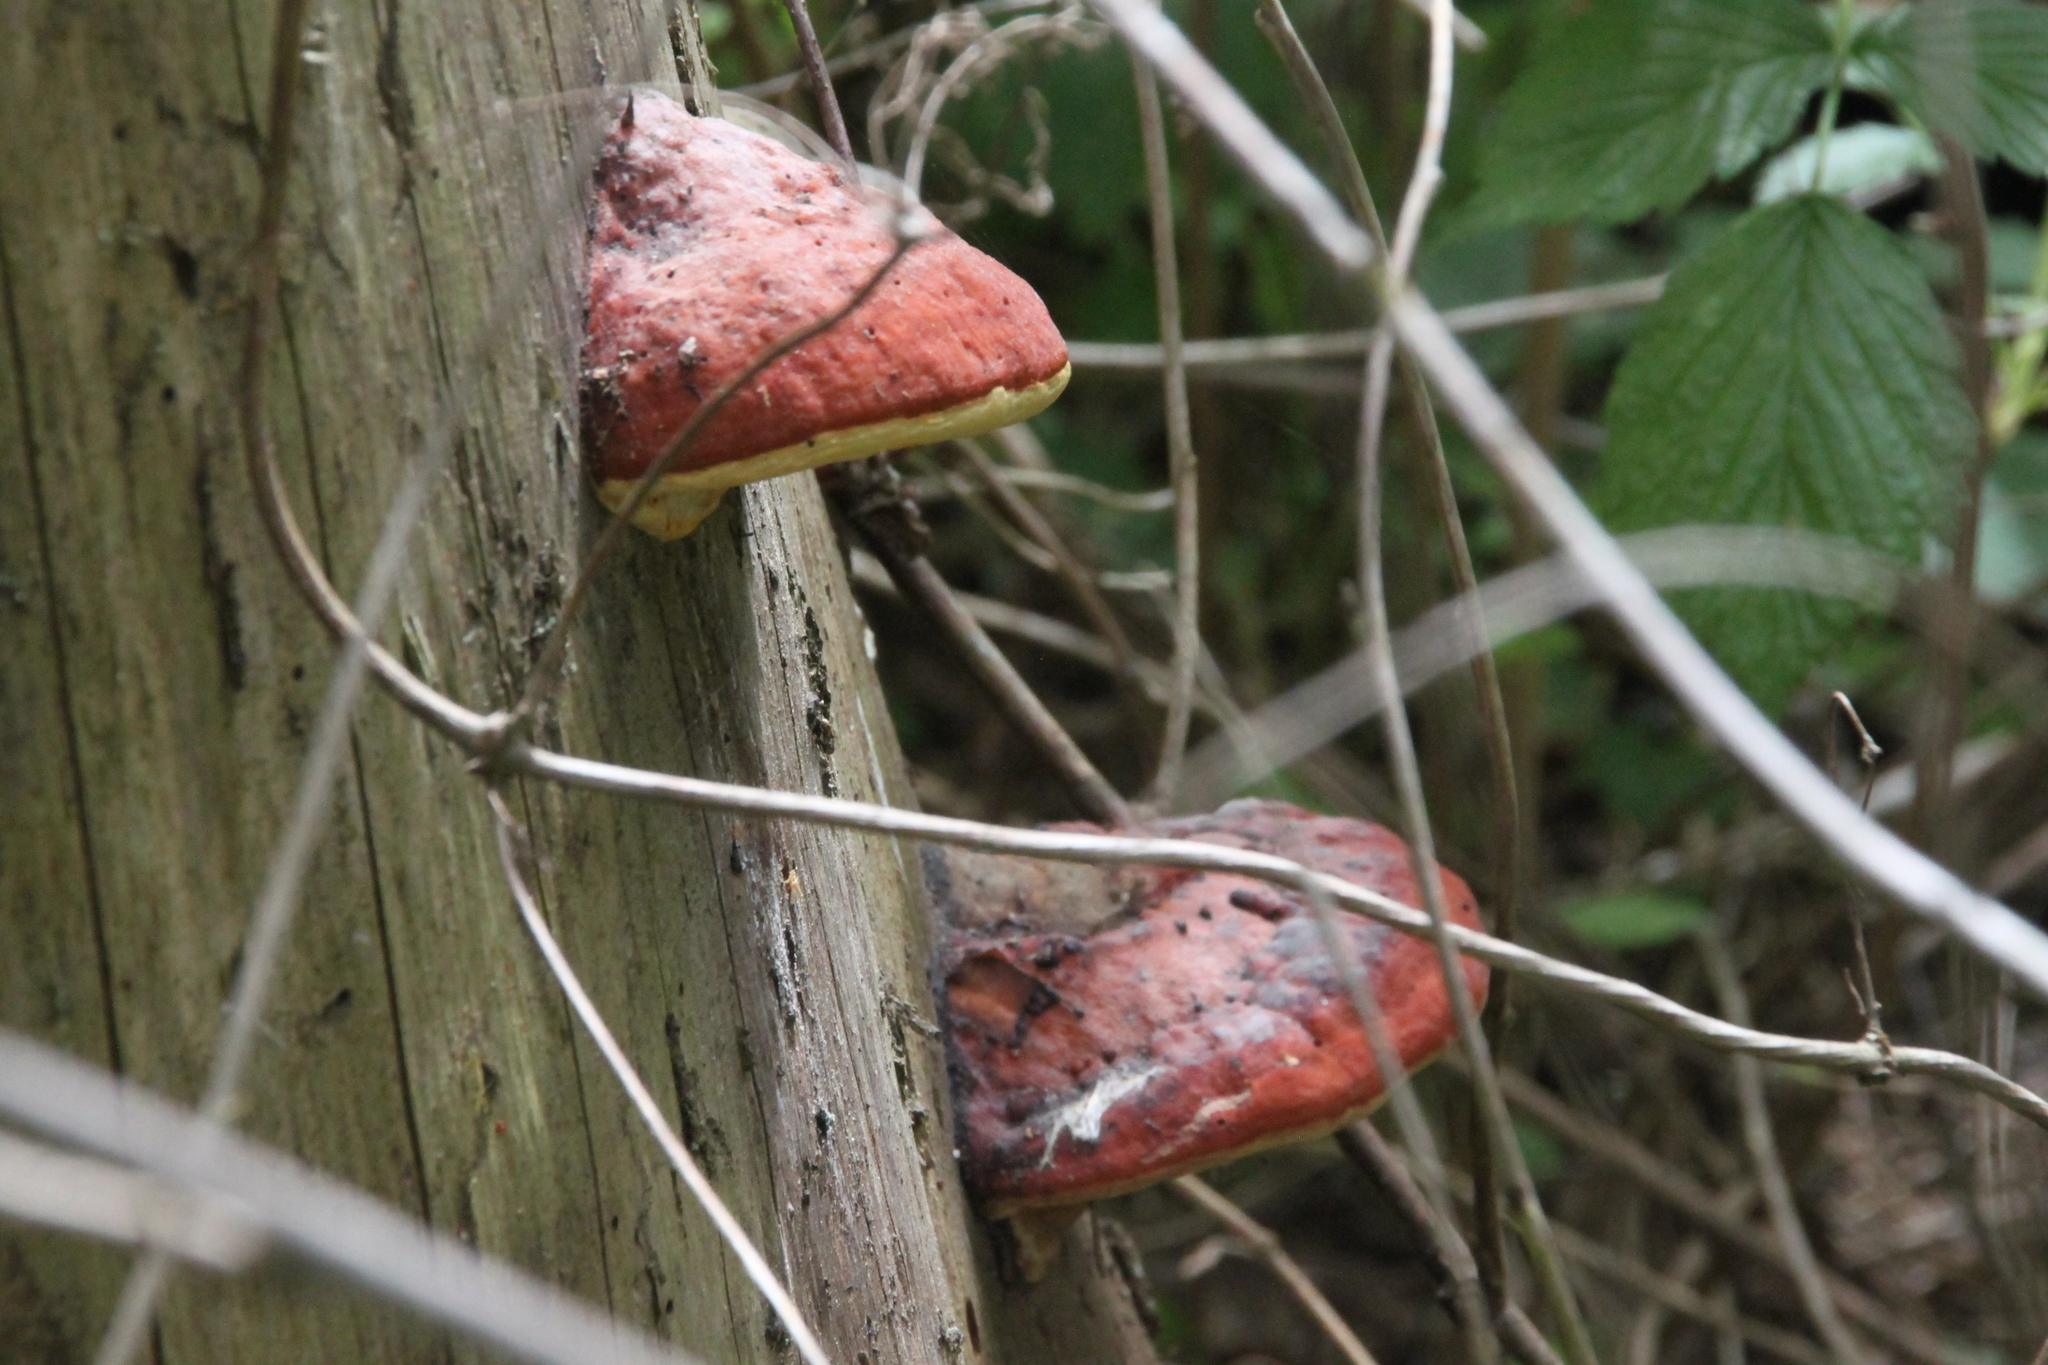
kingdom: Fungi
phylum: Basidiomycota
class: Agaricomycetes
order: Polyporales
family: Fomitopsidaceae
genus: Fomitopsis
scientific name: Fomitopsis pinicola
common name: Red-belted bracket
